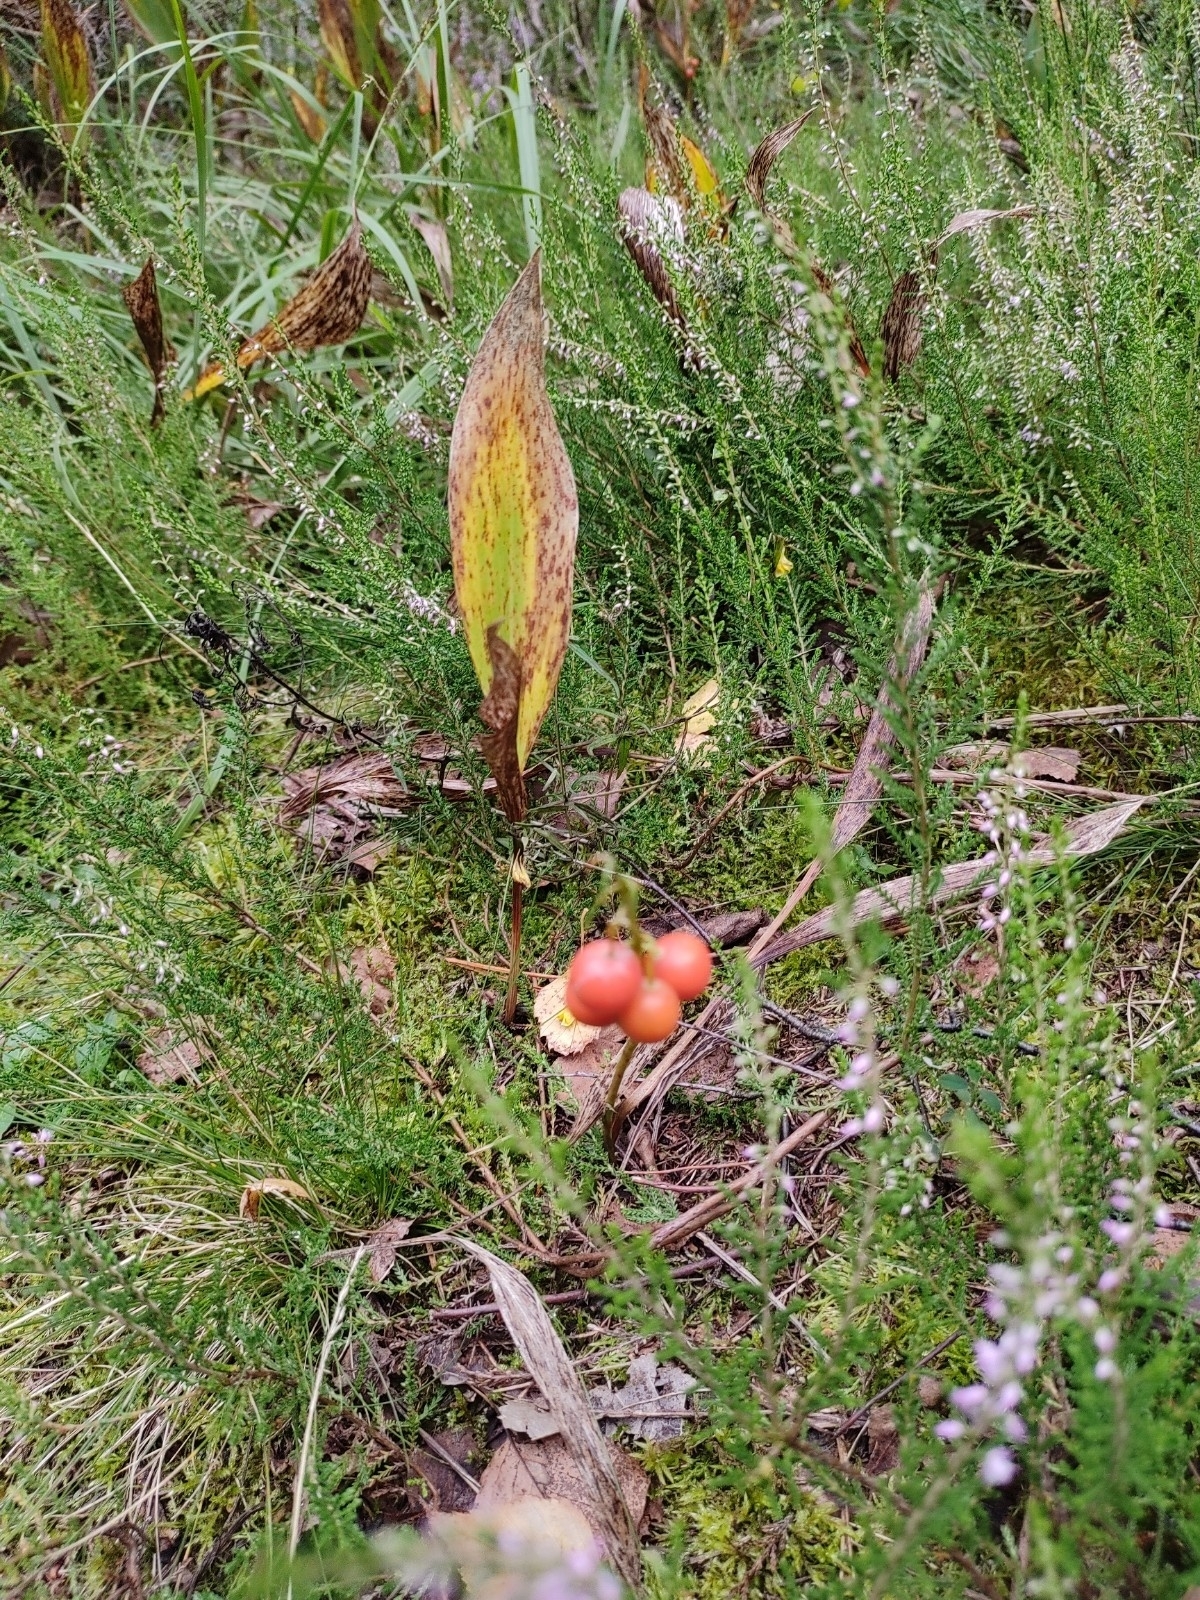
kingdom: Plantae
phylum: Tracheophyta
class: Liliopsida
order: Asparagales
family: Asparagaceae
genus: Convallaria
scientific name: Convallaria majalis
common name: Lily-of-the-valley
